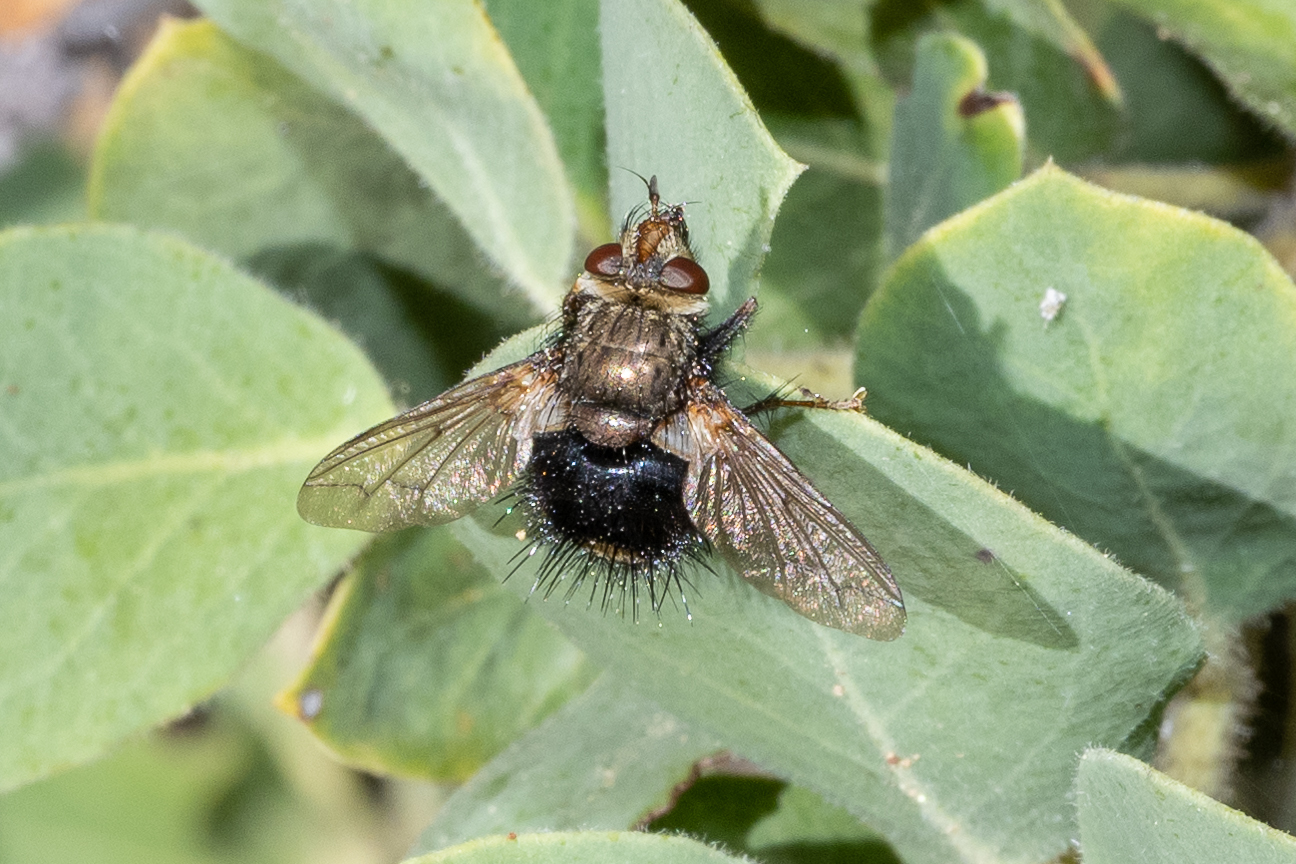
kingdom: Animalia
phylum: Arthropoda
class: Insecta
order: Diptera
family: Tachinidae
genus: Epalpus
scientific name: Epalpus signifer
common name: Early tachinid fly
